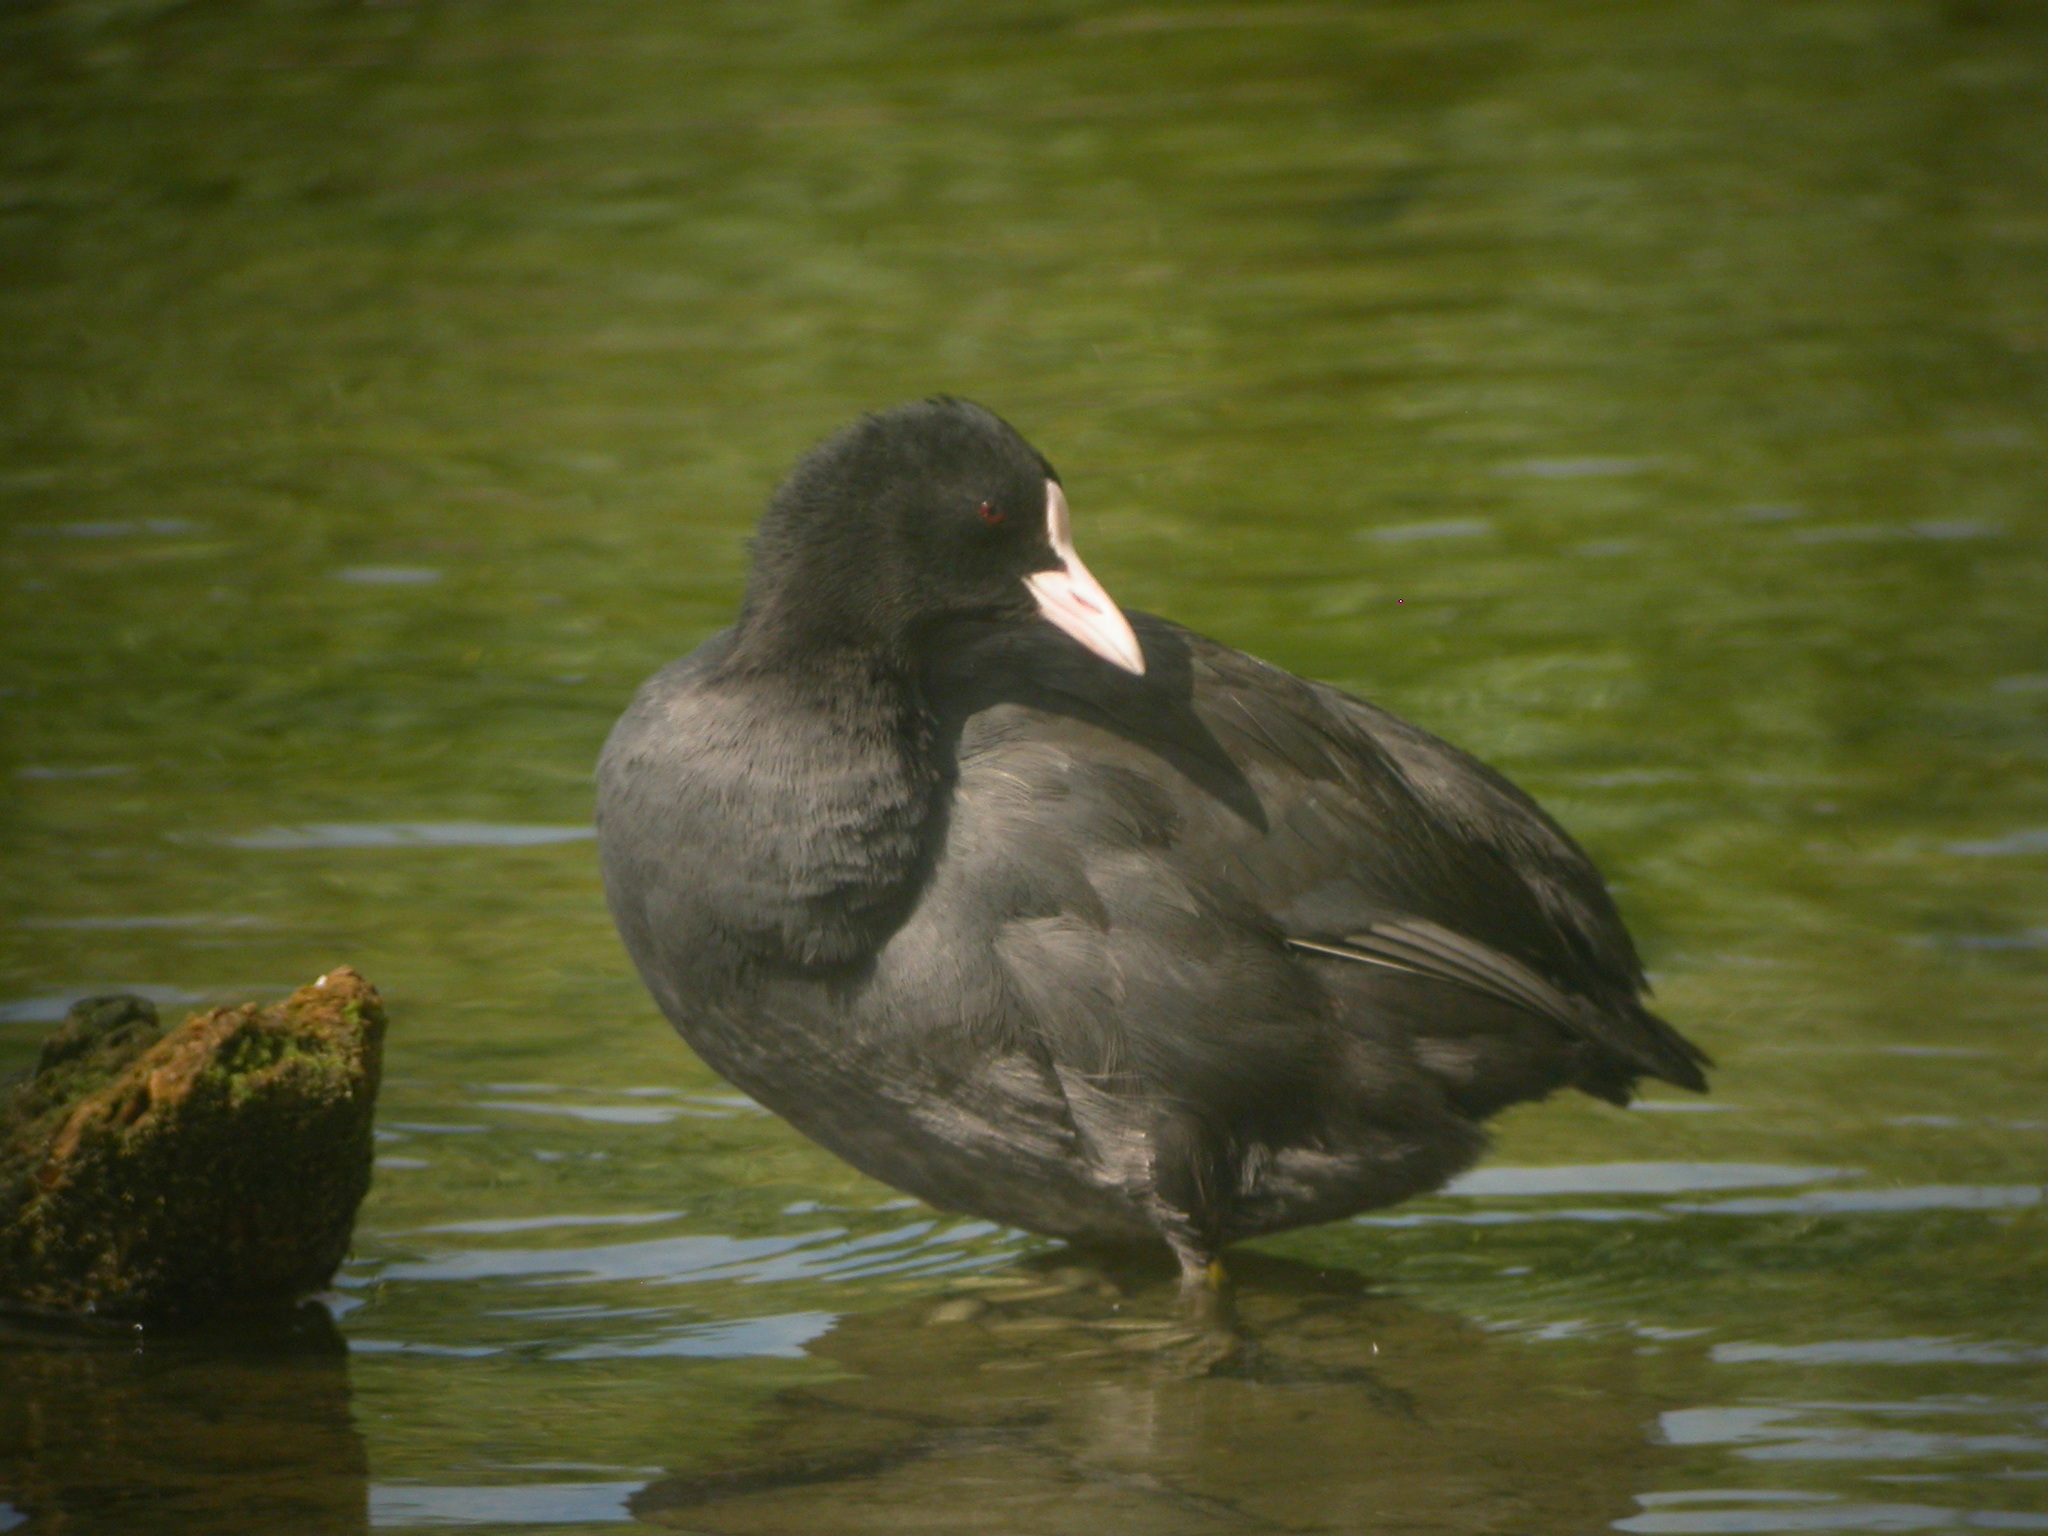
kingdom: Animalia
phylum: Chordata
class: Aves
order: Gruiformes
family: Rallidae
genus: Fulica
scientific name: Fulica atra
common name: Eurasian coot
